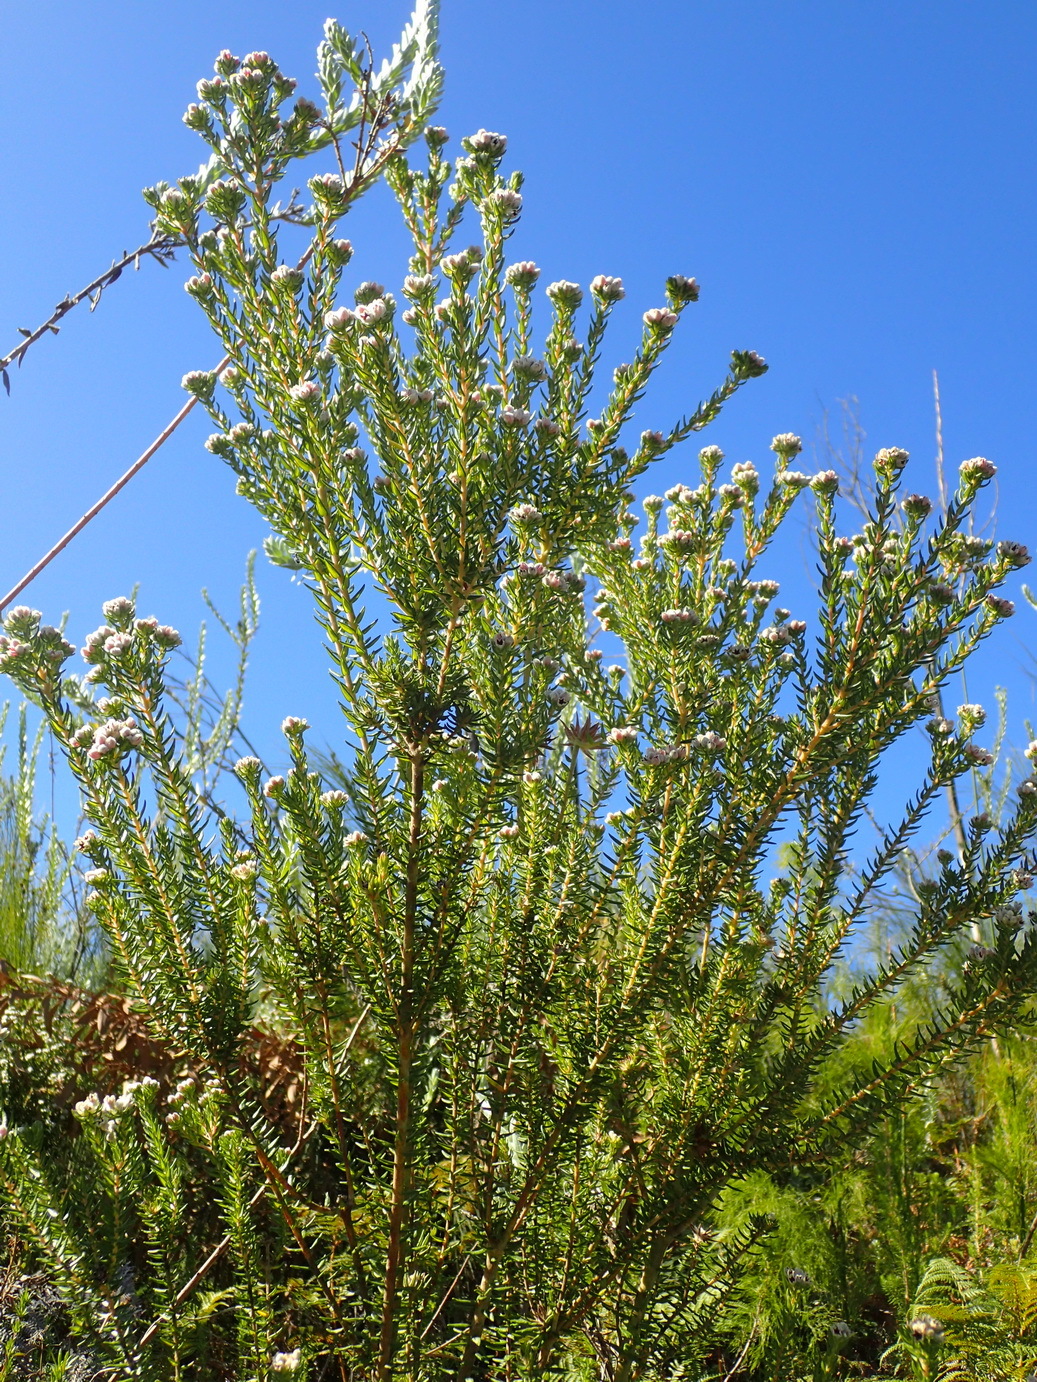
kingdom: Plantae
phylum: Tracheophyta
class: Magnoliopsida
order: Rosales
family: Rhamnaceae
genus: Phylica
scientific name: Phylica purpurea
